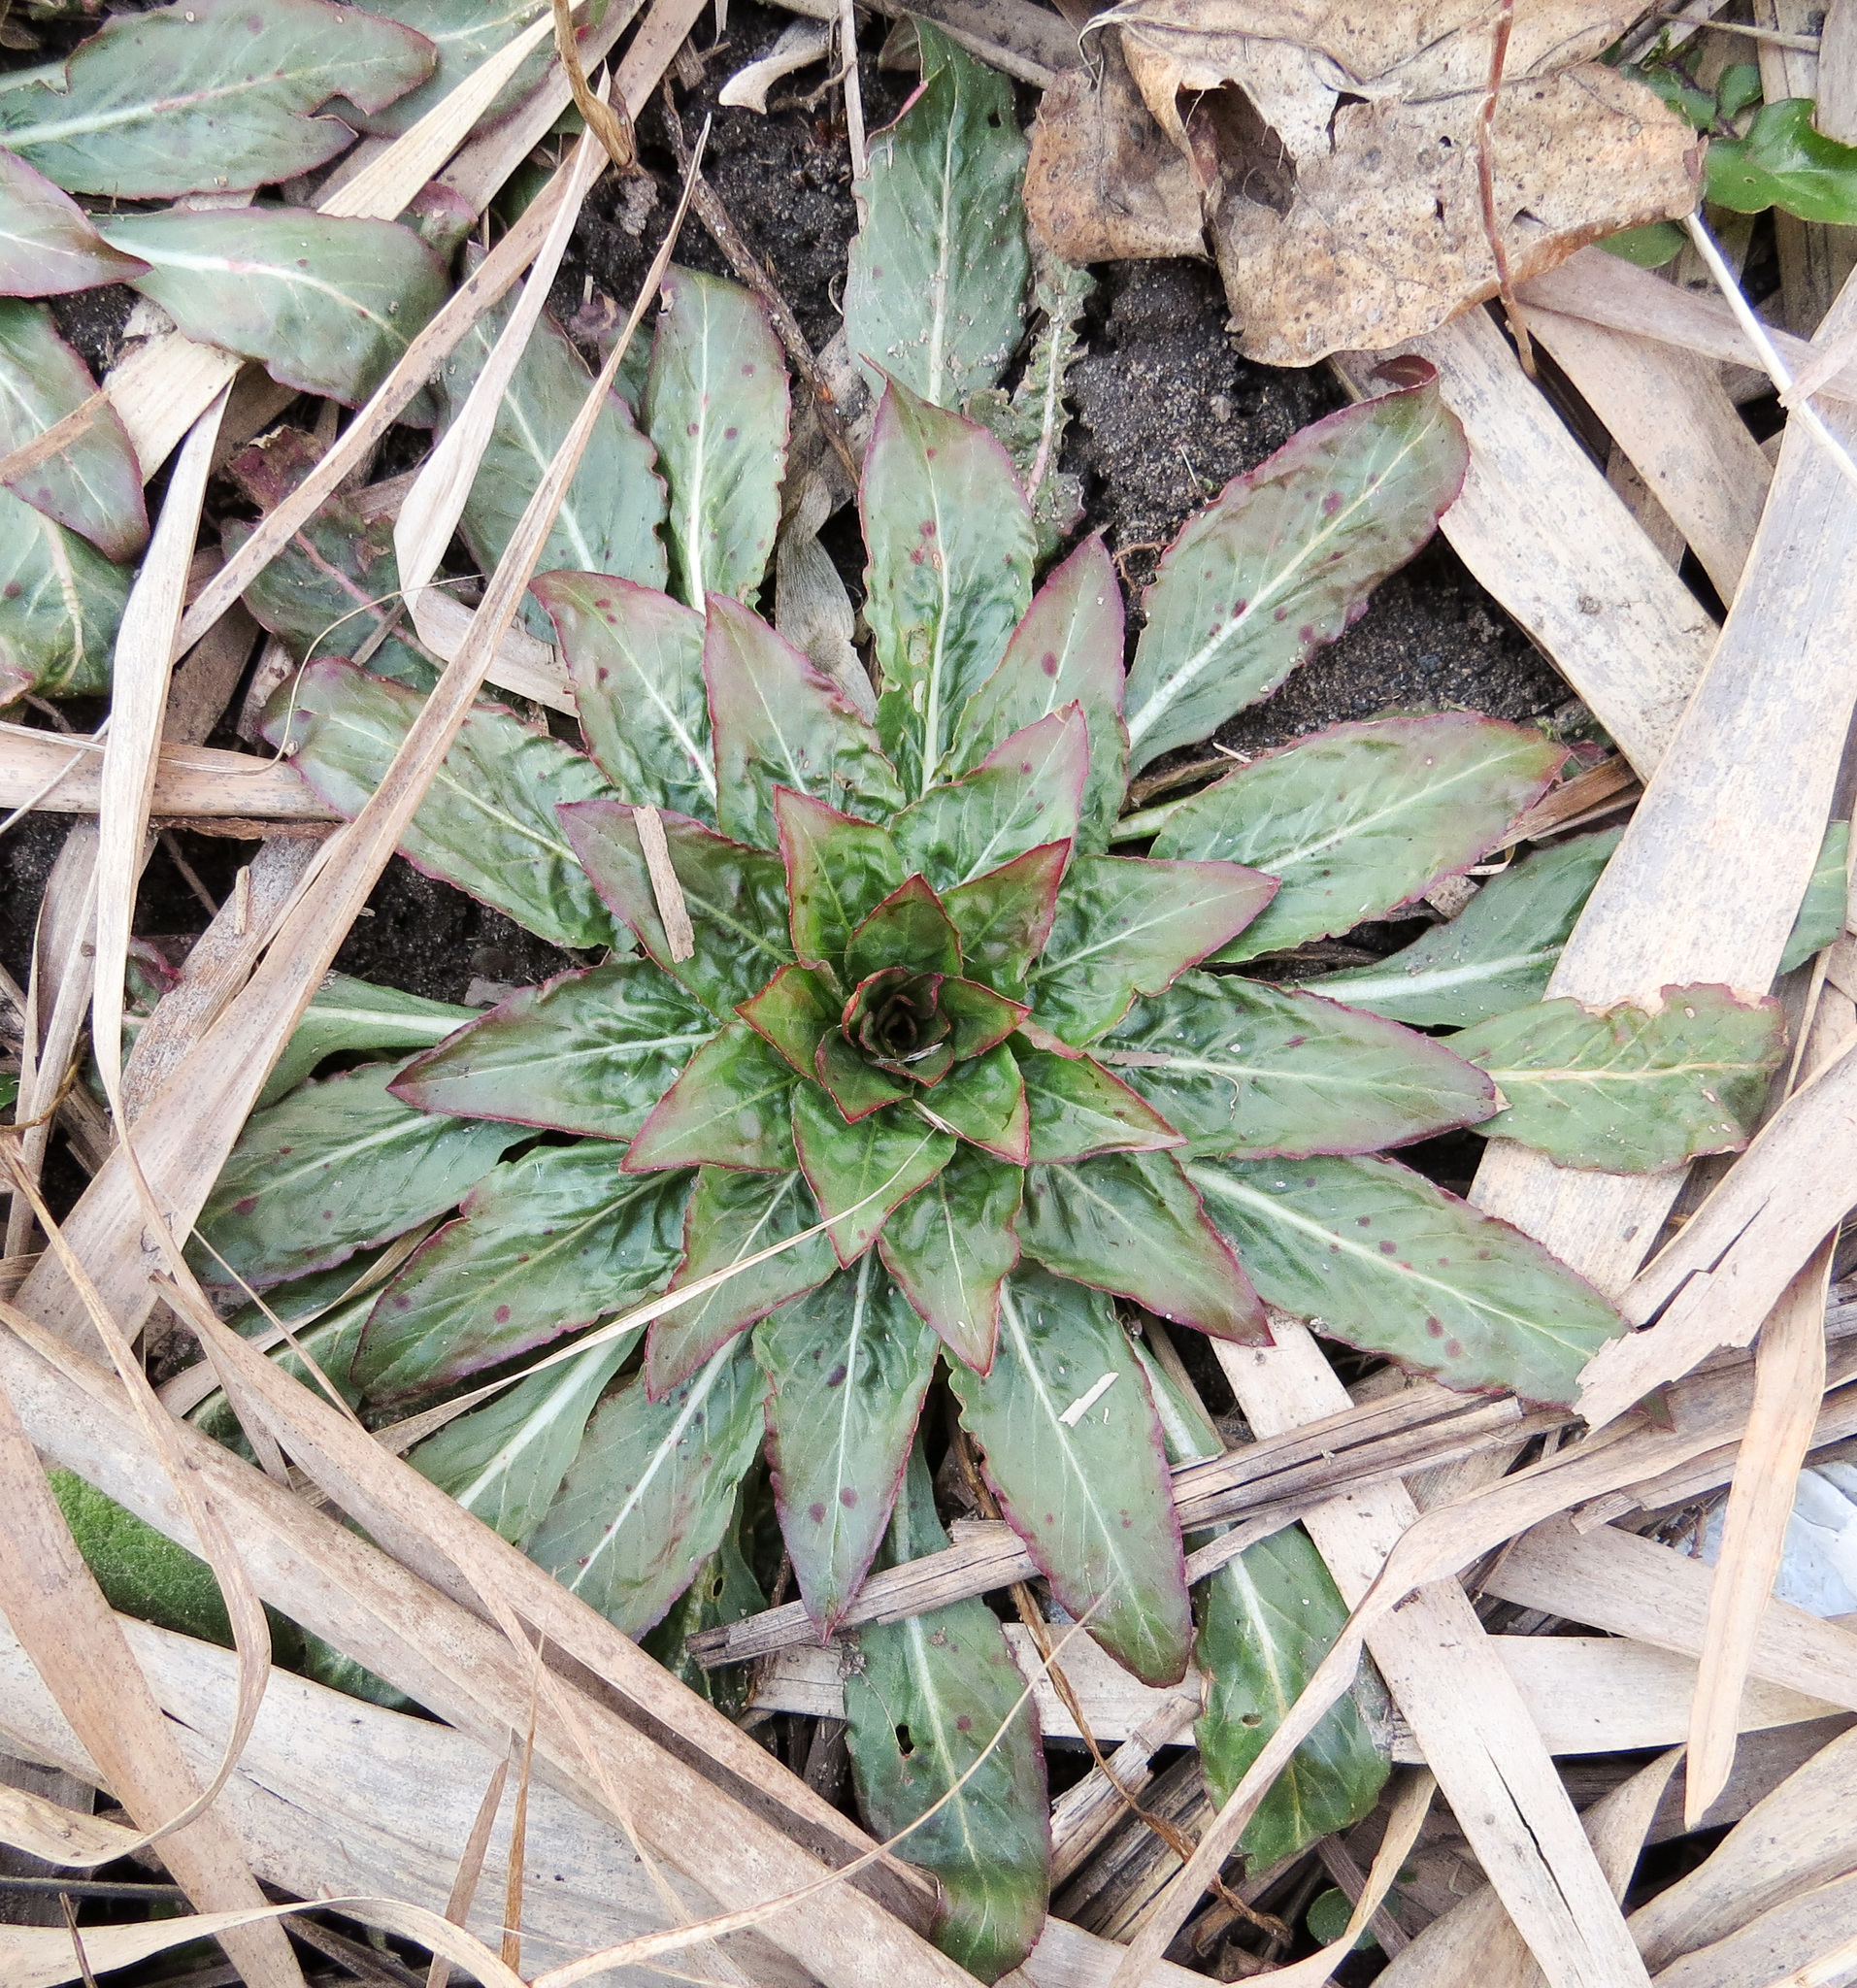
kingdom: Plantae
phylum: Tracheophyta
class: Magnoliopsida
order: Myrtales
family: Onagraceae
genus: Oenothera
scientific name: Oenothera biennis
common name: Common evening-primrose
